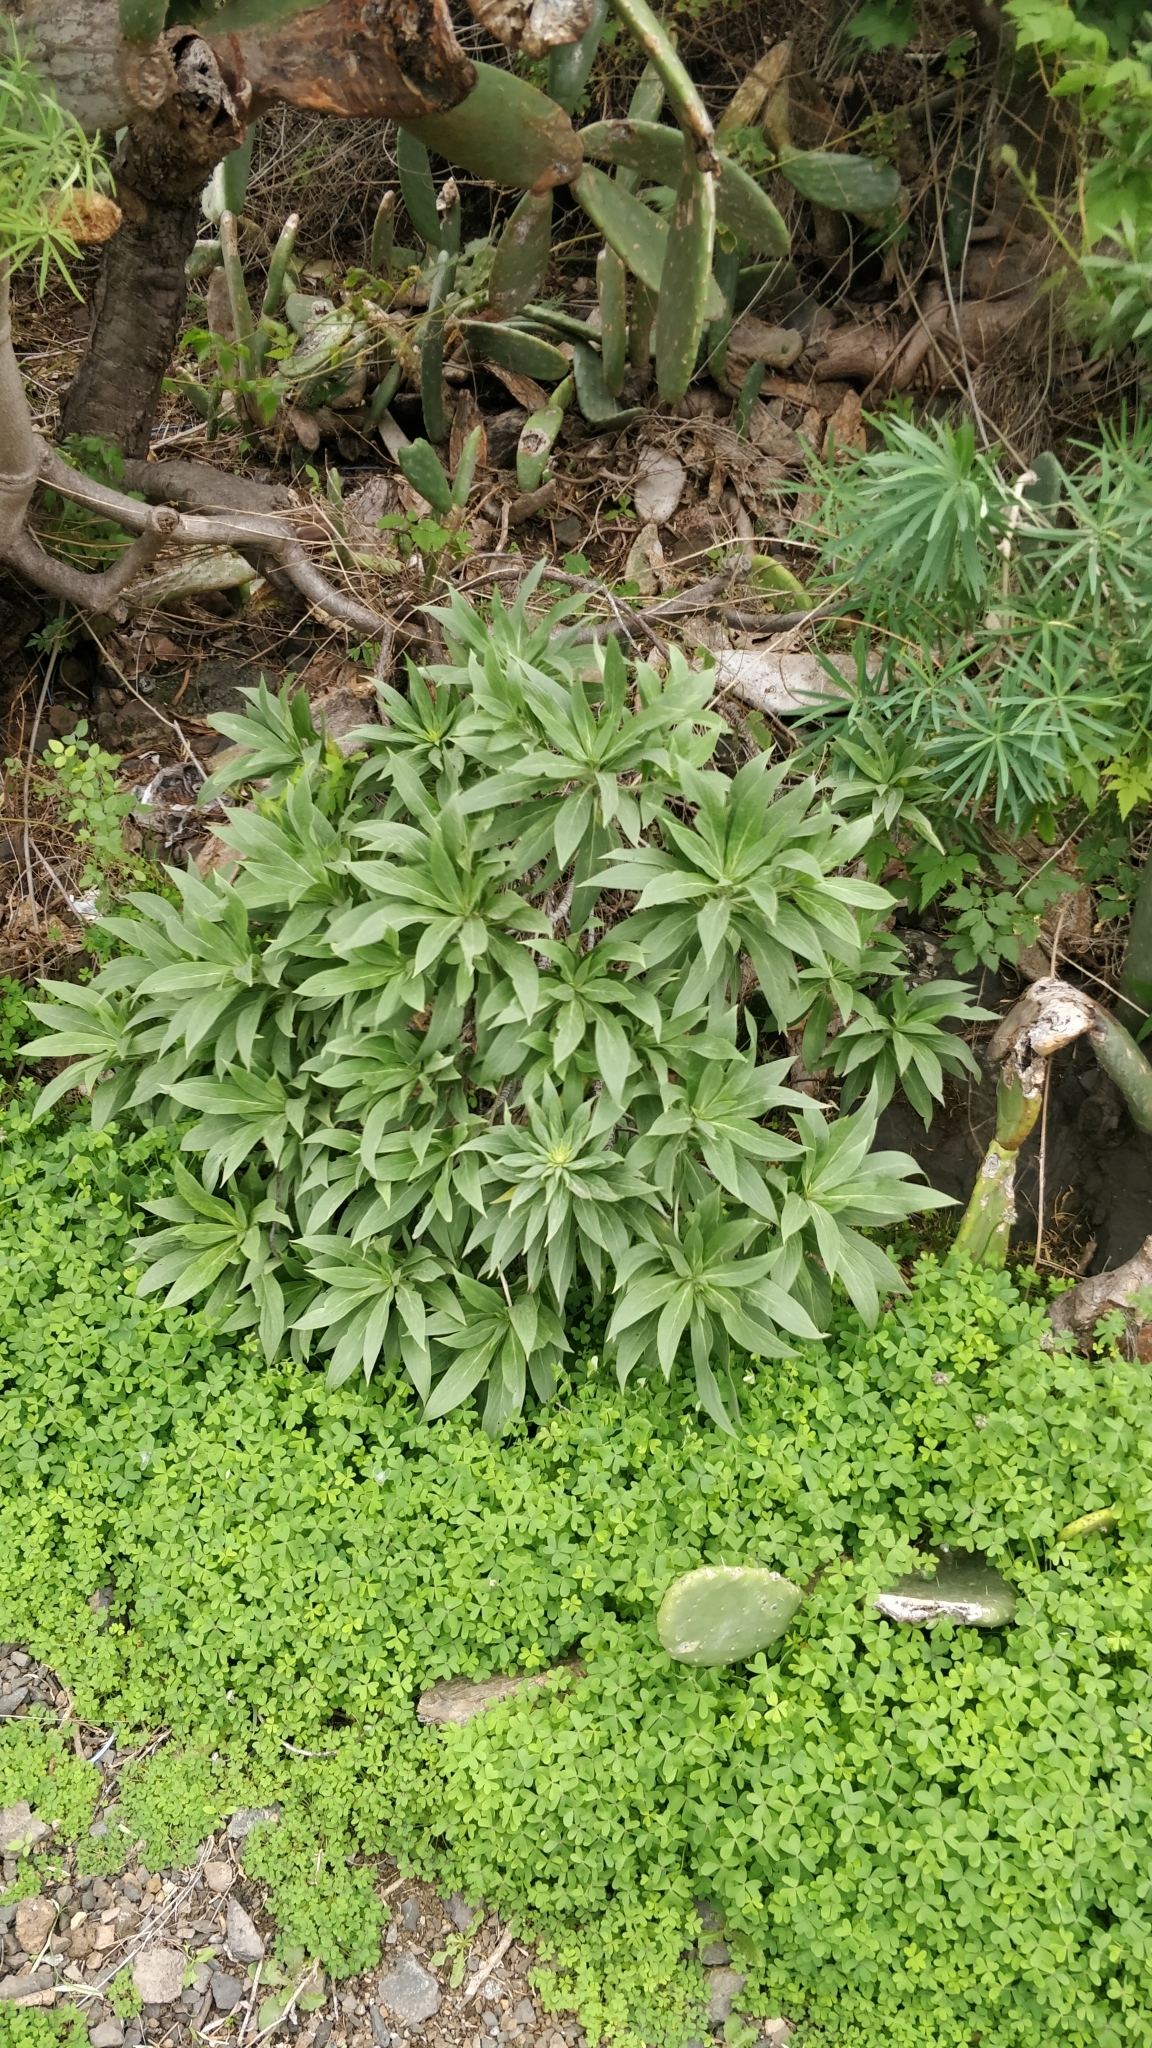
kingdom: Plantae
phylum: Tracheophyta
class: Magnoliopsida
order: Boraginales
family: Boraginaceae
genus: Echium
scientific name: Echium nervosum
